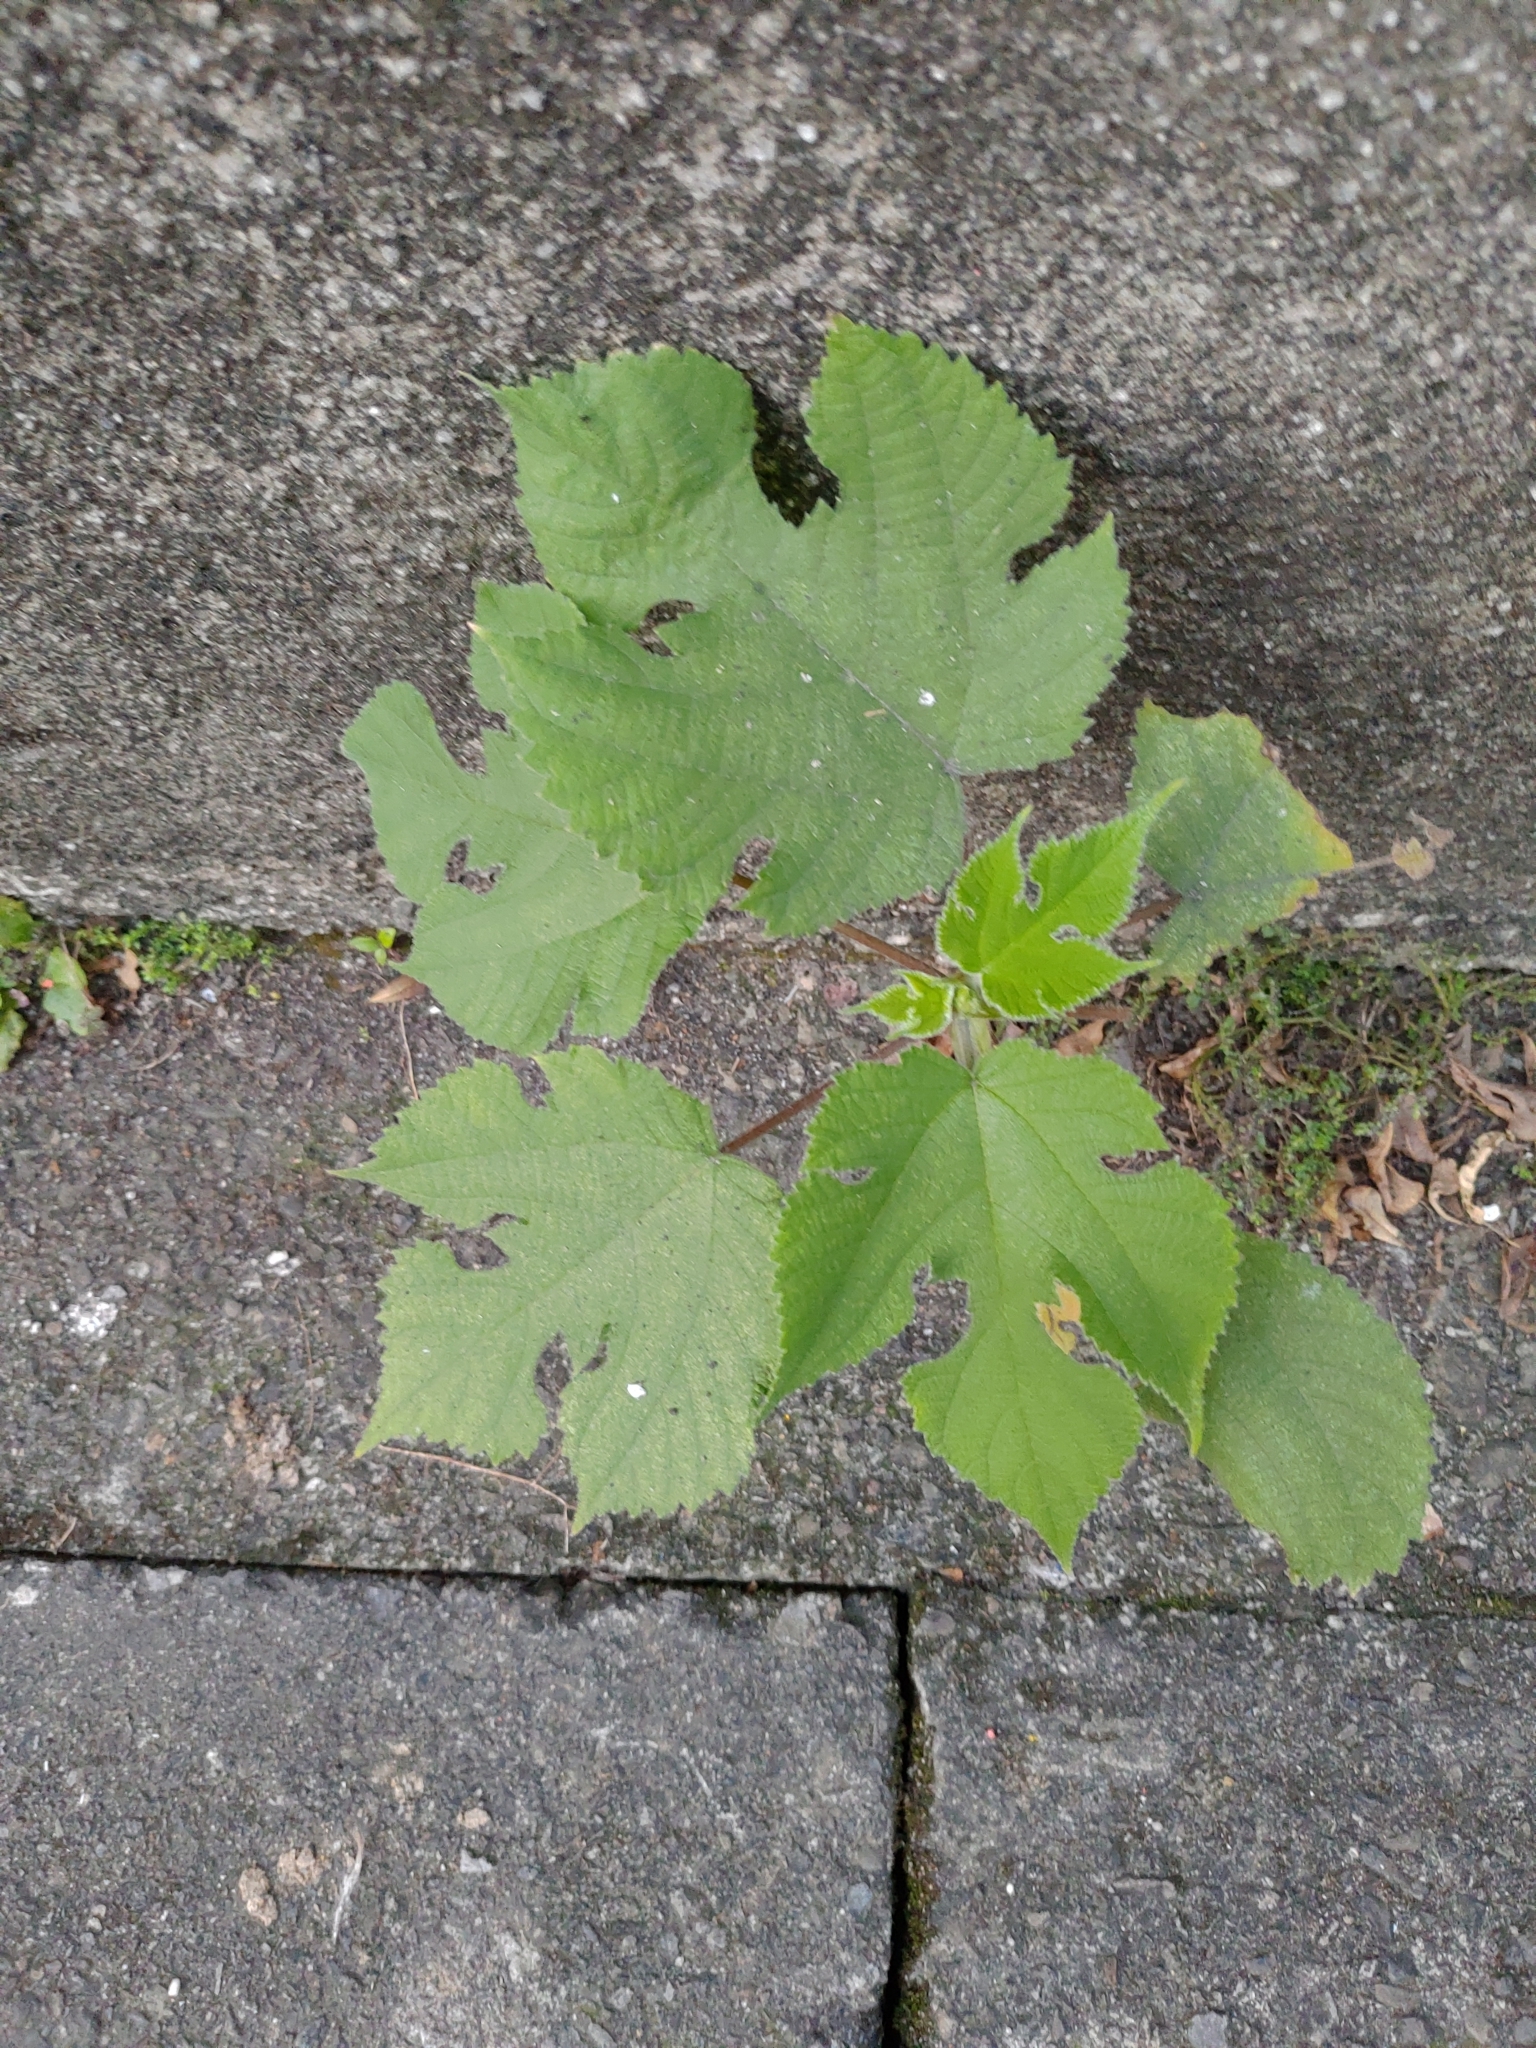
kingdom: Plantae
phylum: Tracheophyta
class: Magnoliopsida
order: Rosales
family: Moraceae
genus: Broussonetia
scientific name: Broussonetia papyrifera
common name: Paper mulberry
